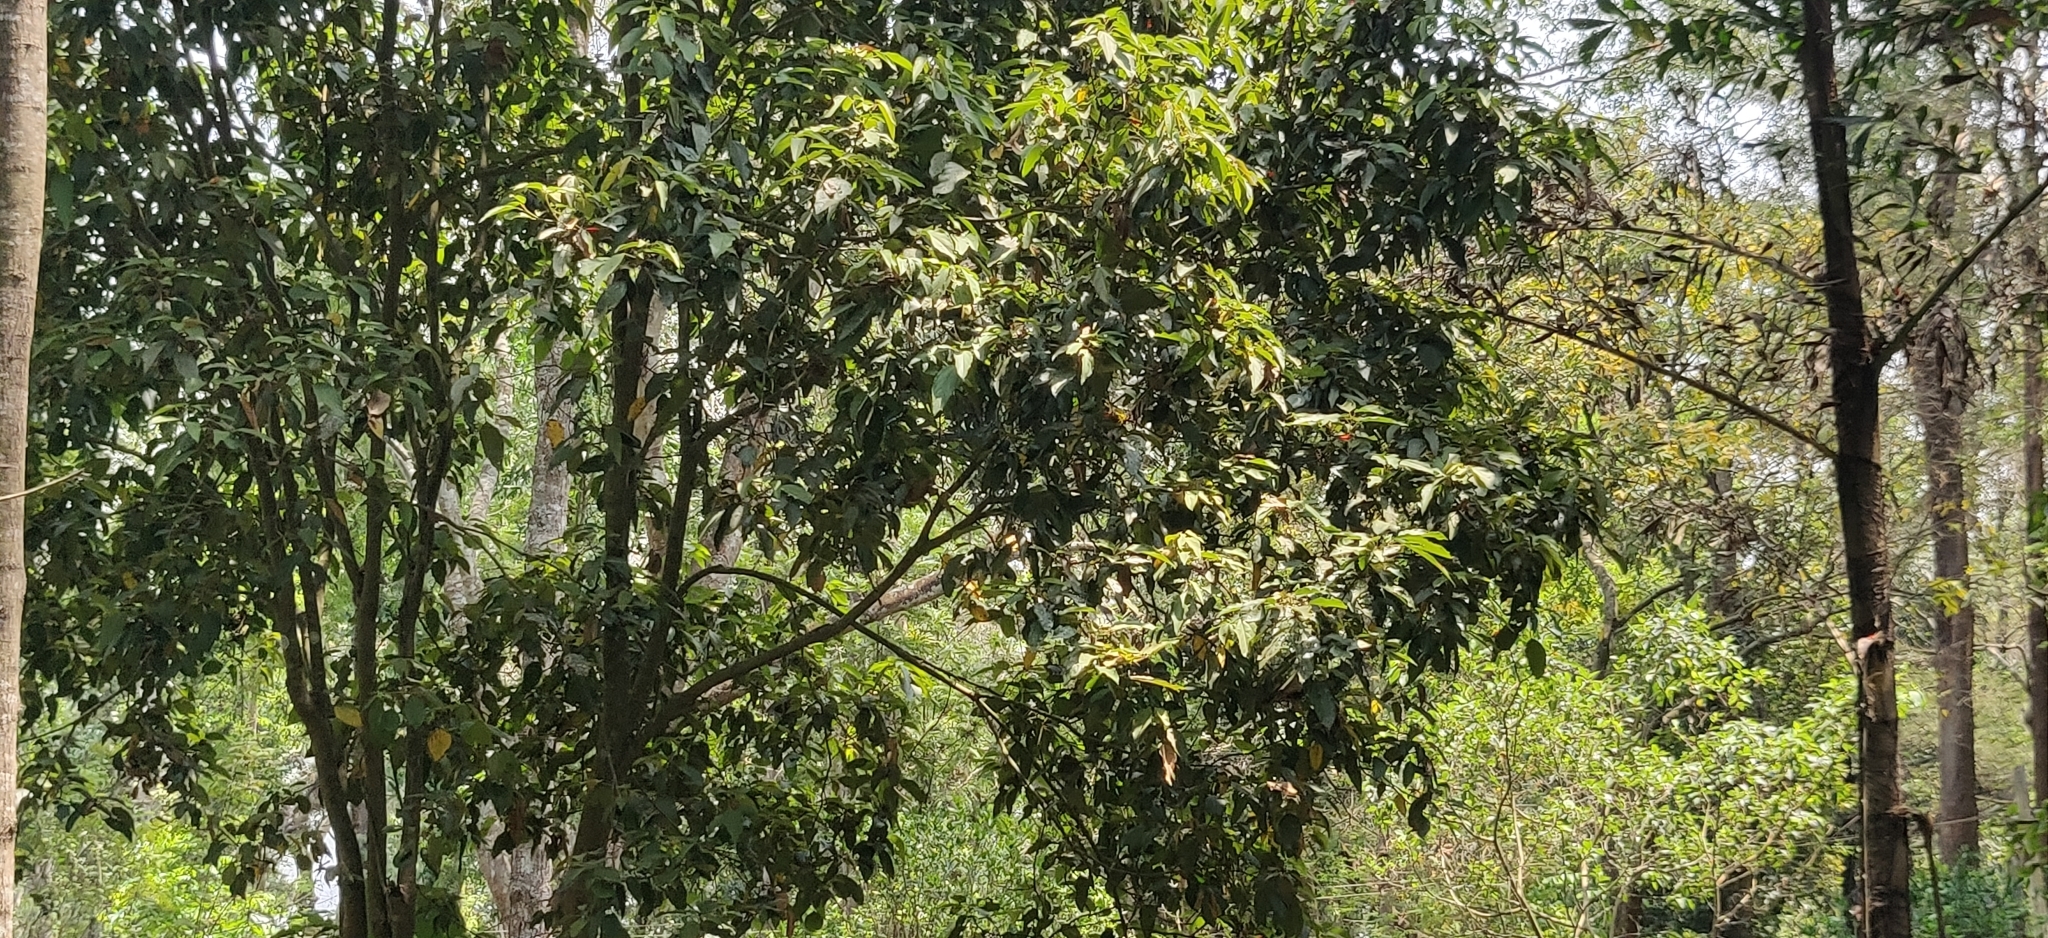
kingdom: Plantae
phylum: Tracheophyta
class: Magnoliopsida
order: Malpighiales
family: Euphorbiaceae
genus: Mallotus
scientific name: Mallotus philippensis
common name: Kamala tree
